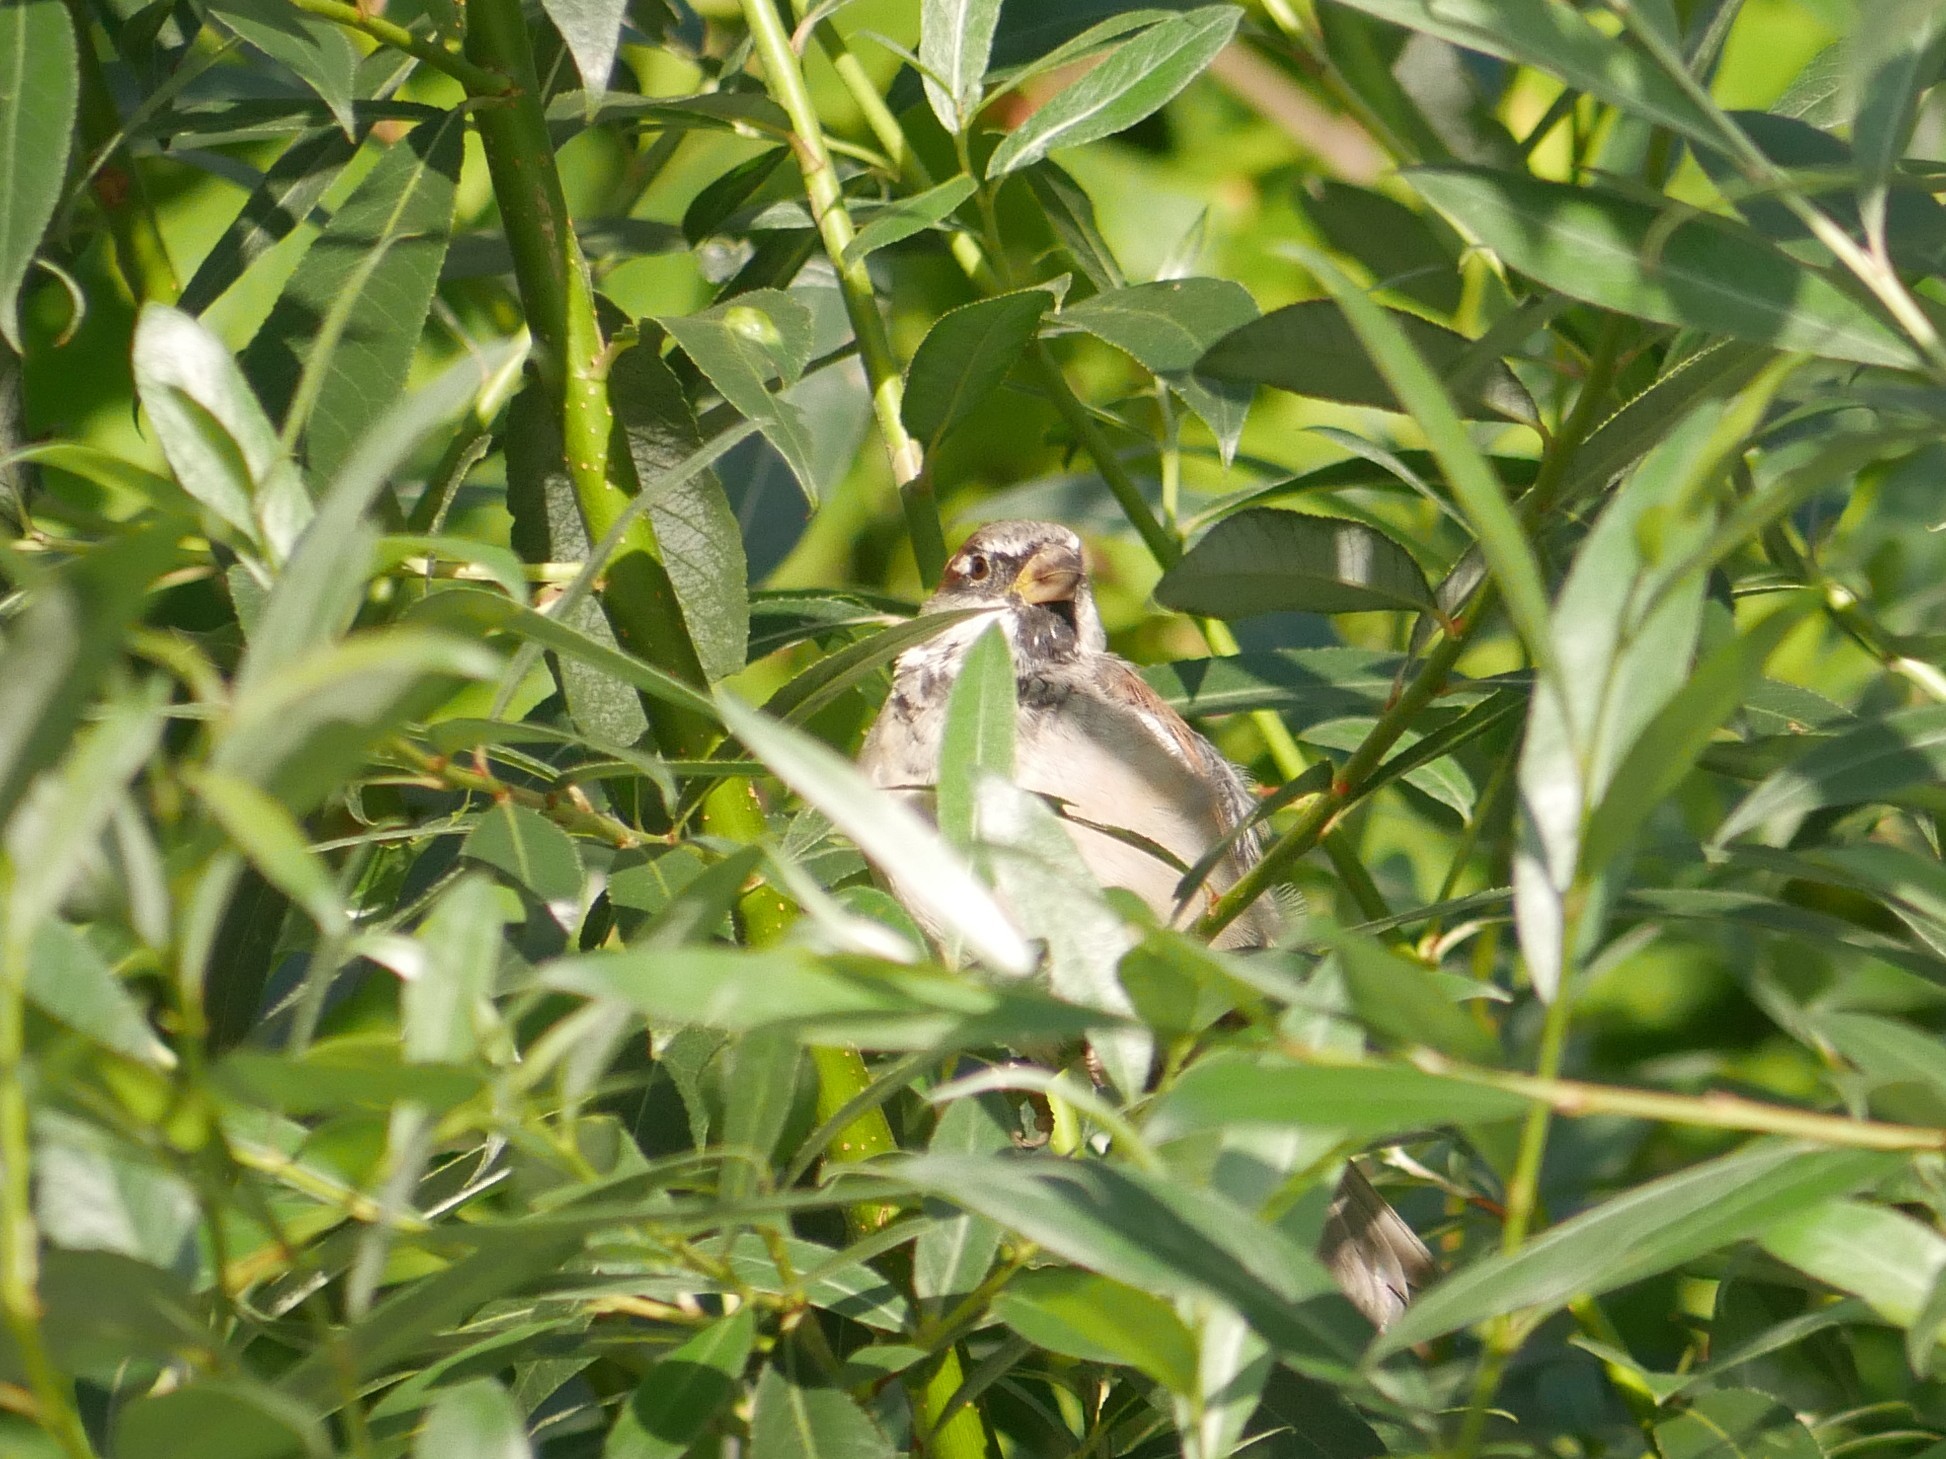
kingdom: Animalia
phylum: Chordata
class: Aves
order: Passeriformes
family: Passeridae
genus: Passer
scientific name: Passer domesticus
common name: House sparrow
